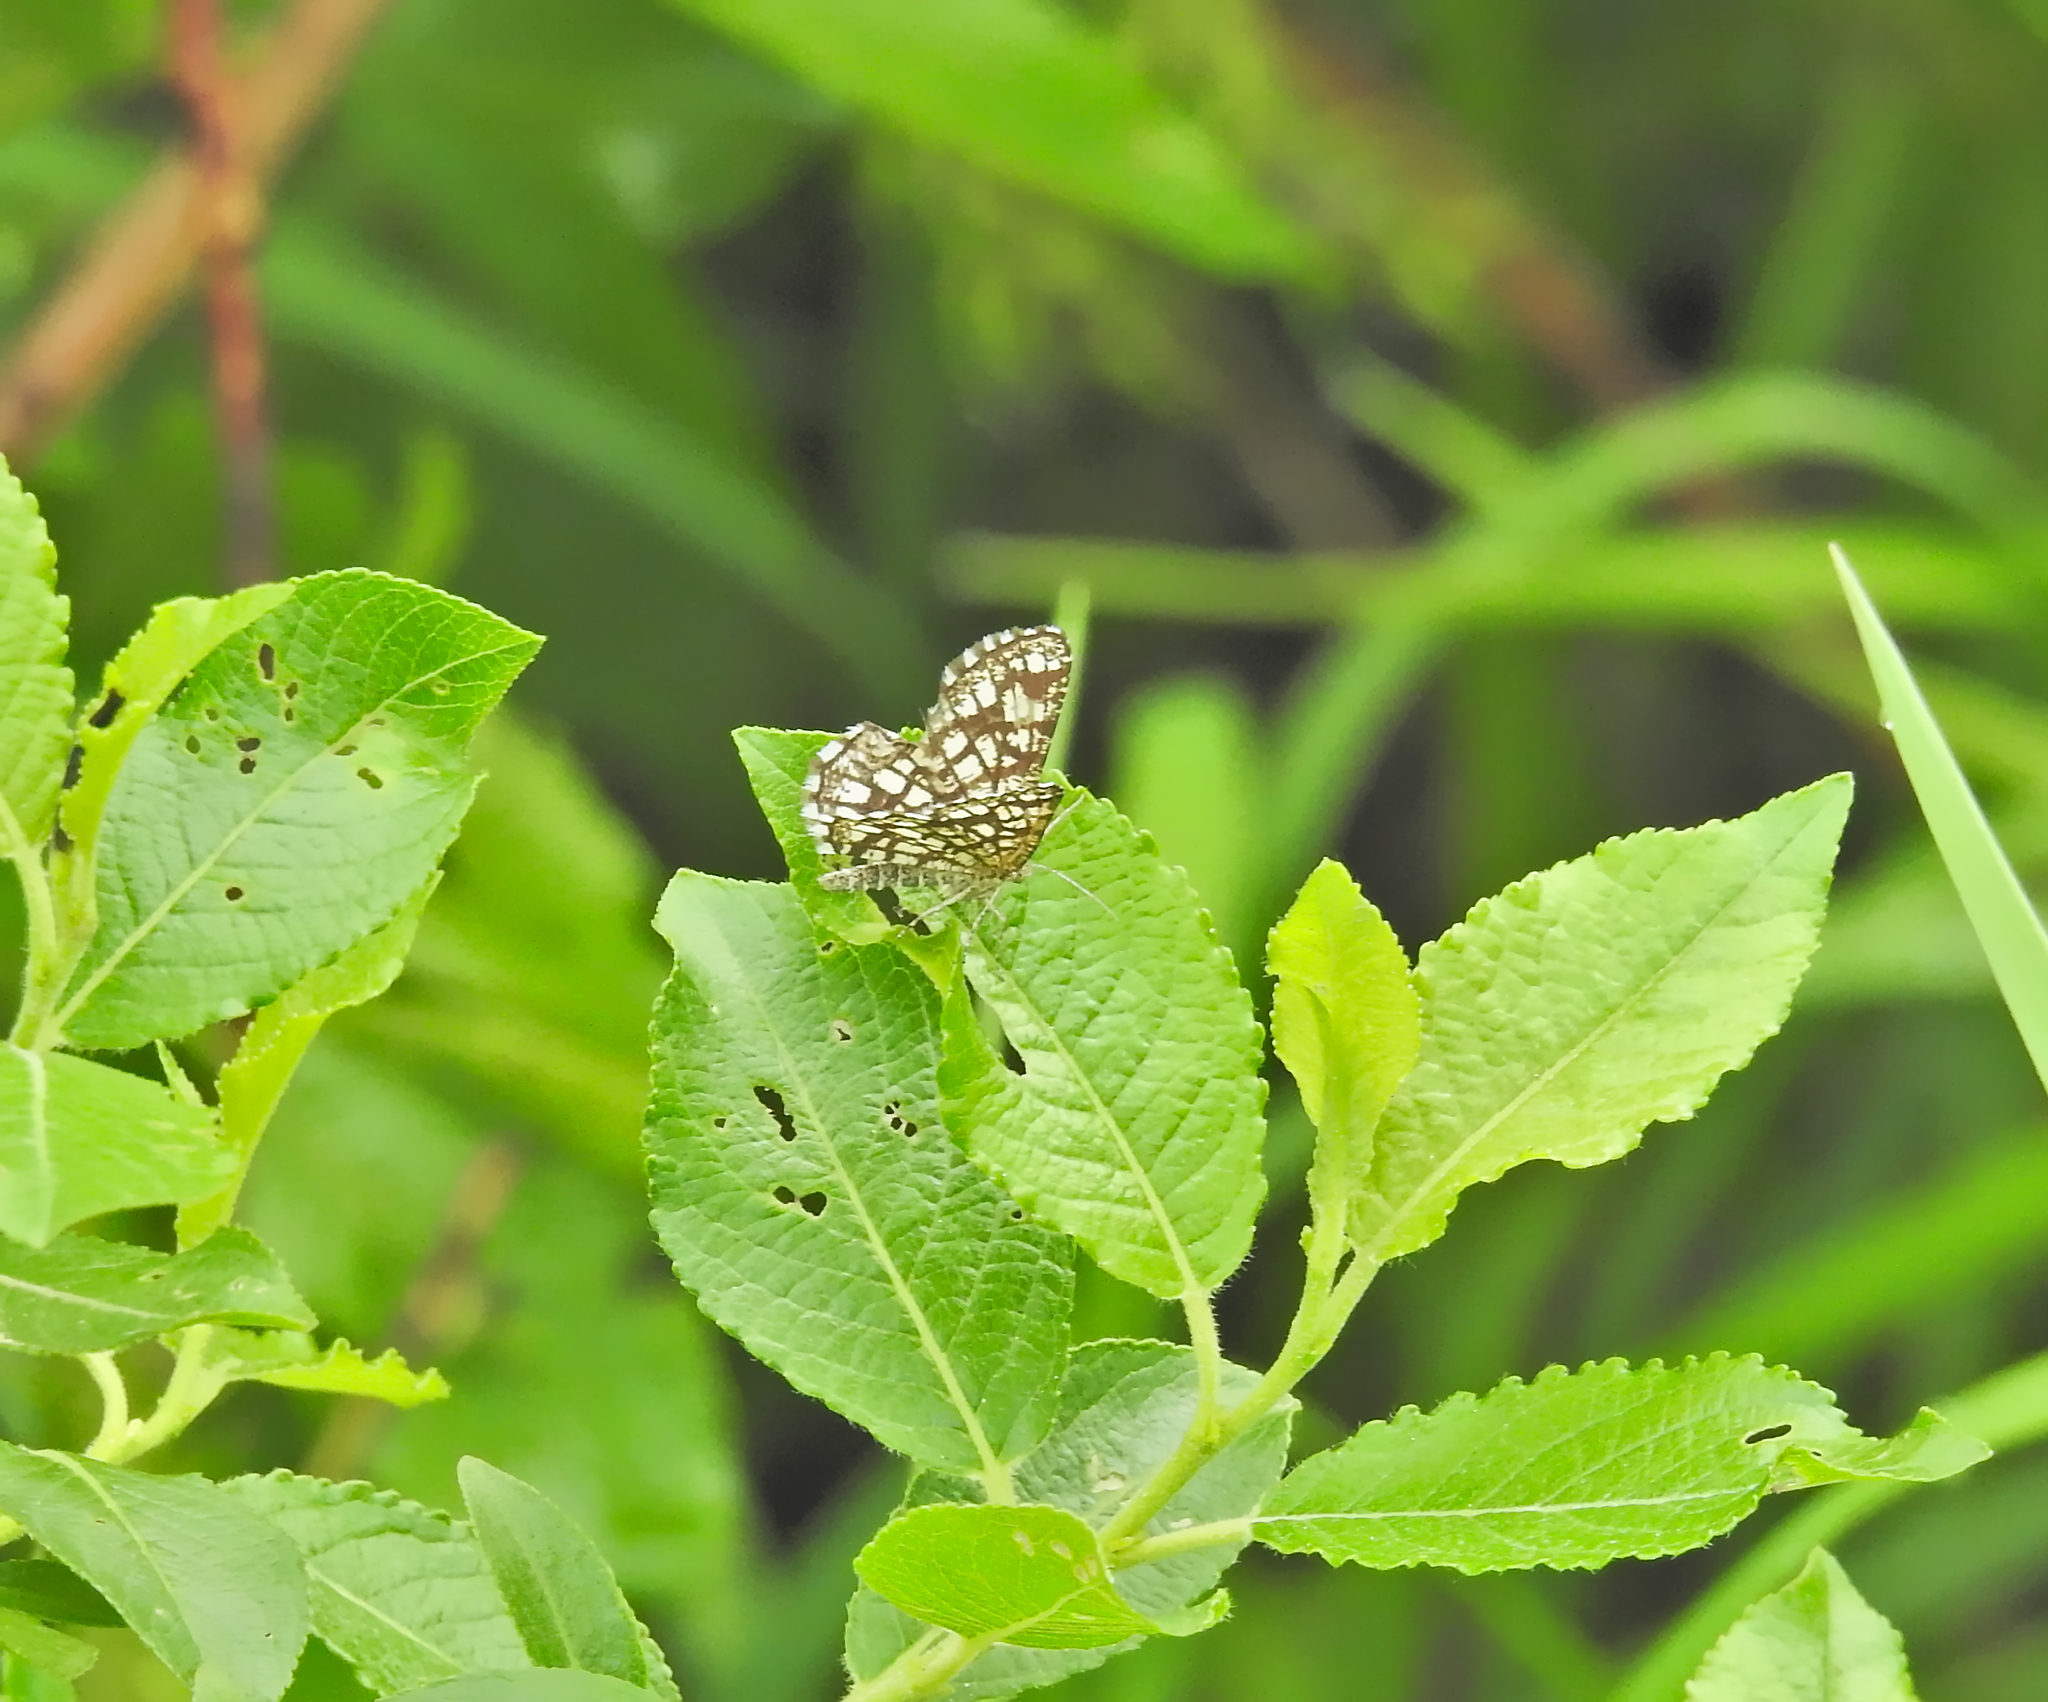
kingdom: Animalia
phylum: Arthropoda
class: Insecta
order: Lepidoptera
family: Geometridae
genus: Chiasmia
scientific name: Chiasmia clathrata
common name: Latticed heath
